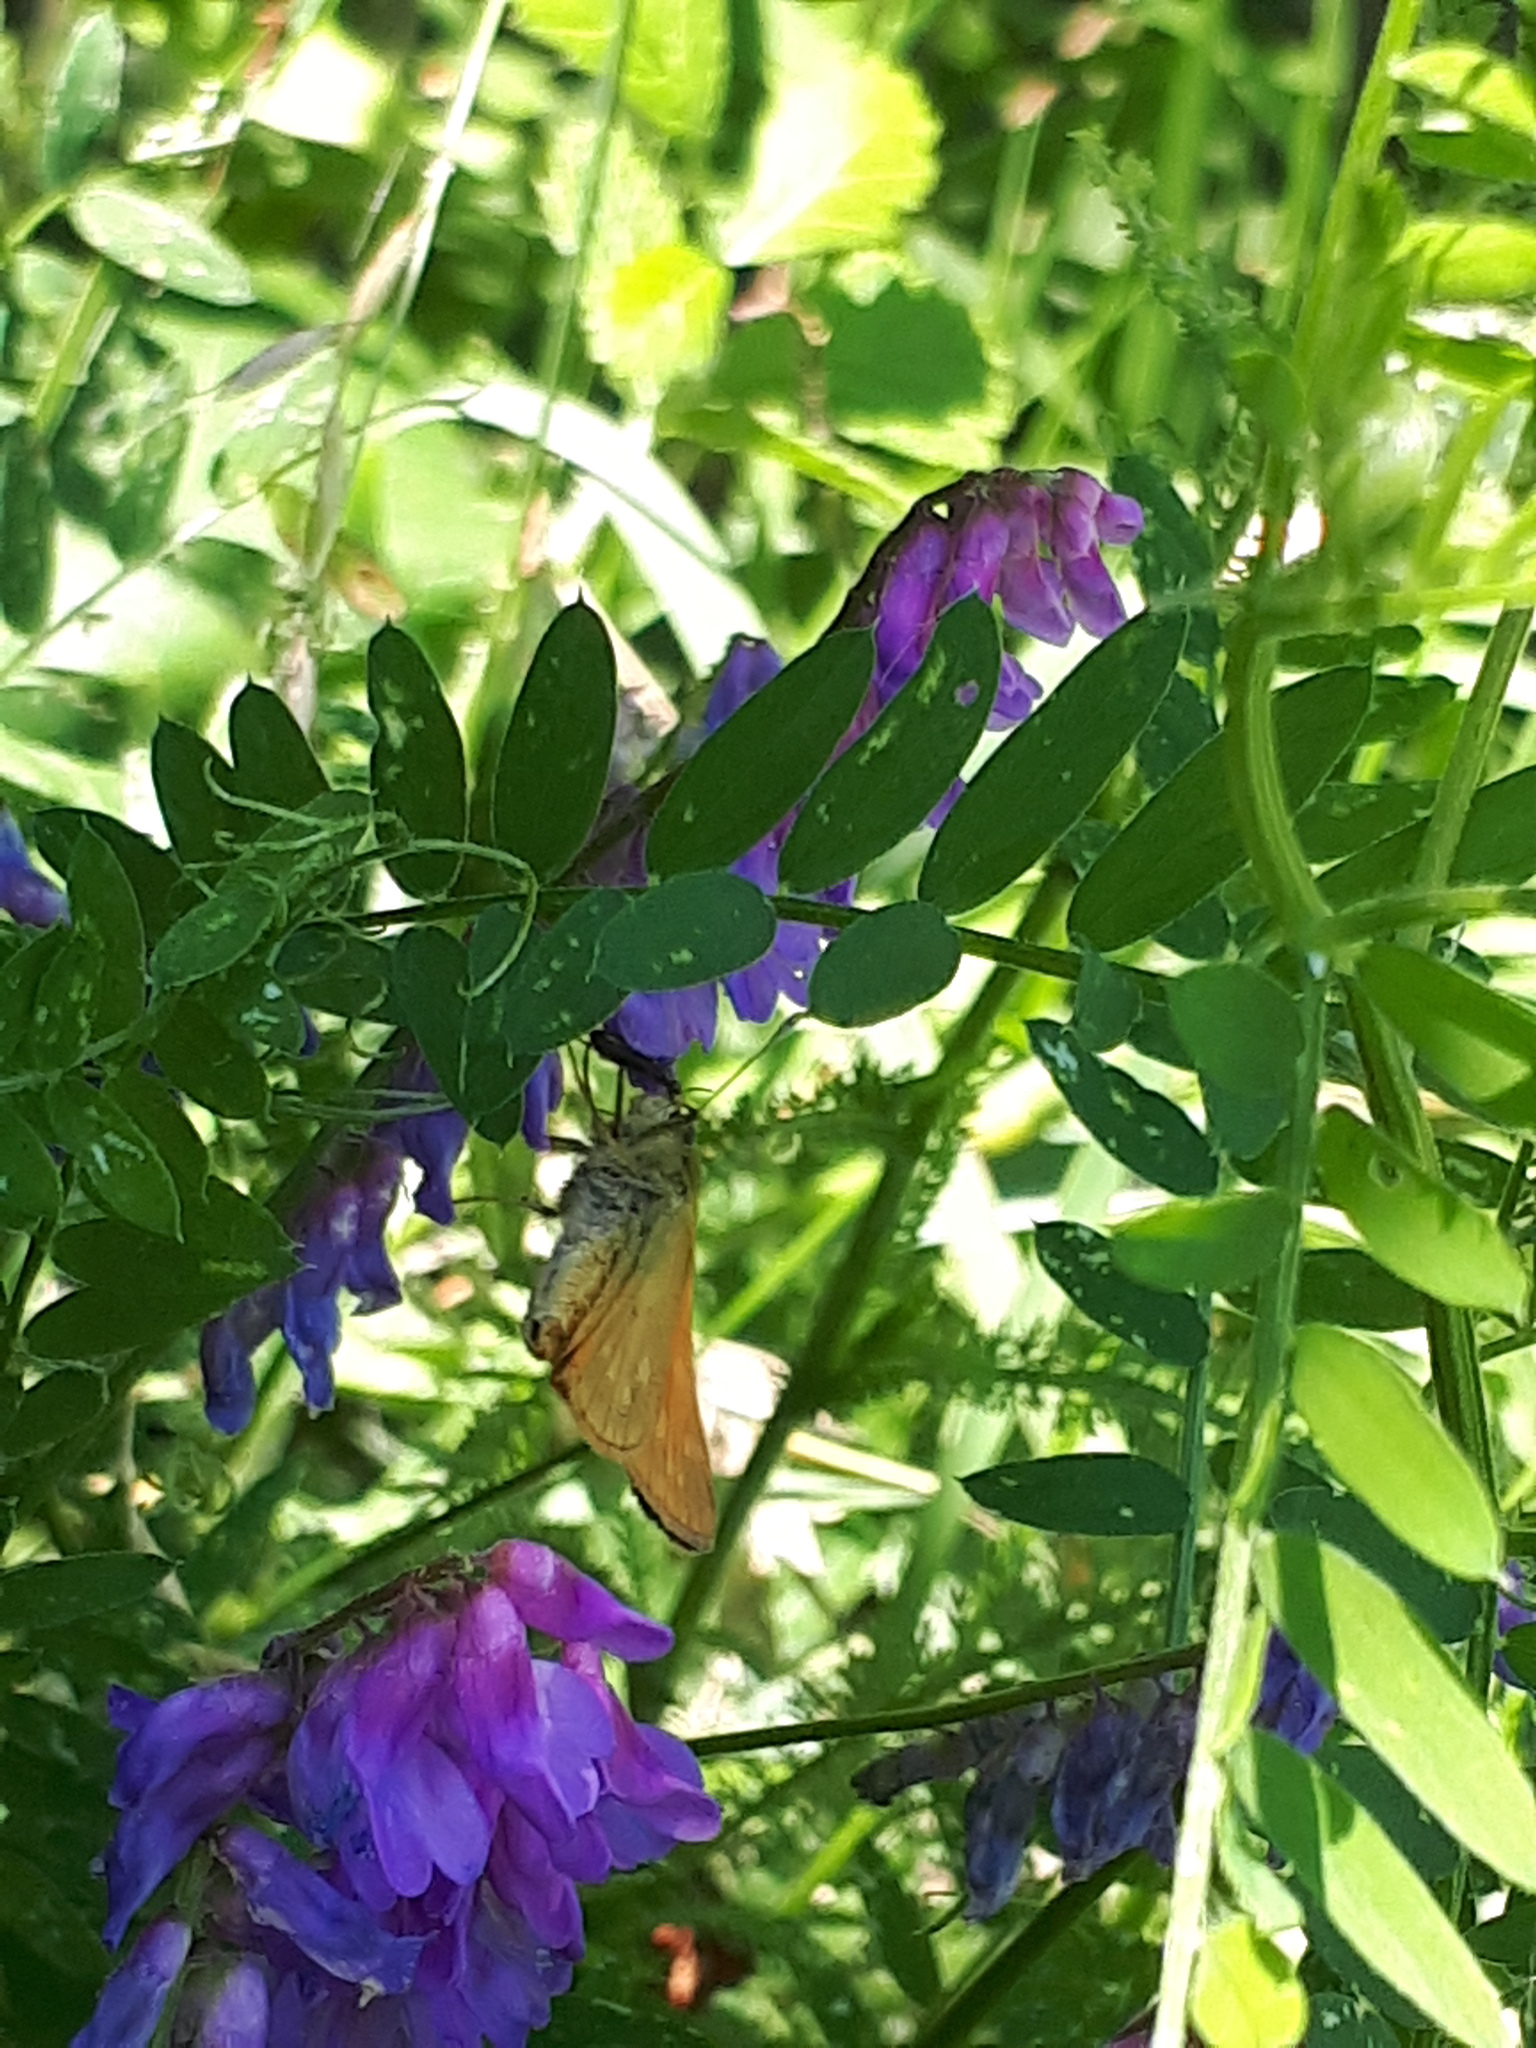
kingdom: Animalia
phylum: Arthropoda
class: Insecta
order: Lepidoptera
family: Hesperiidae
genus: Ochlodes
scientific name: Ochlodes venata
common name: Large skipper
